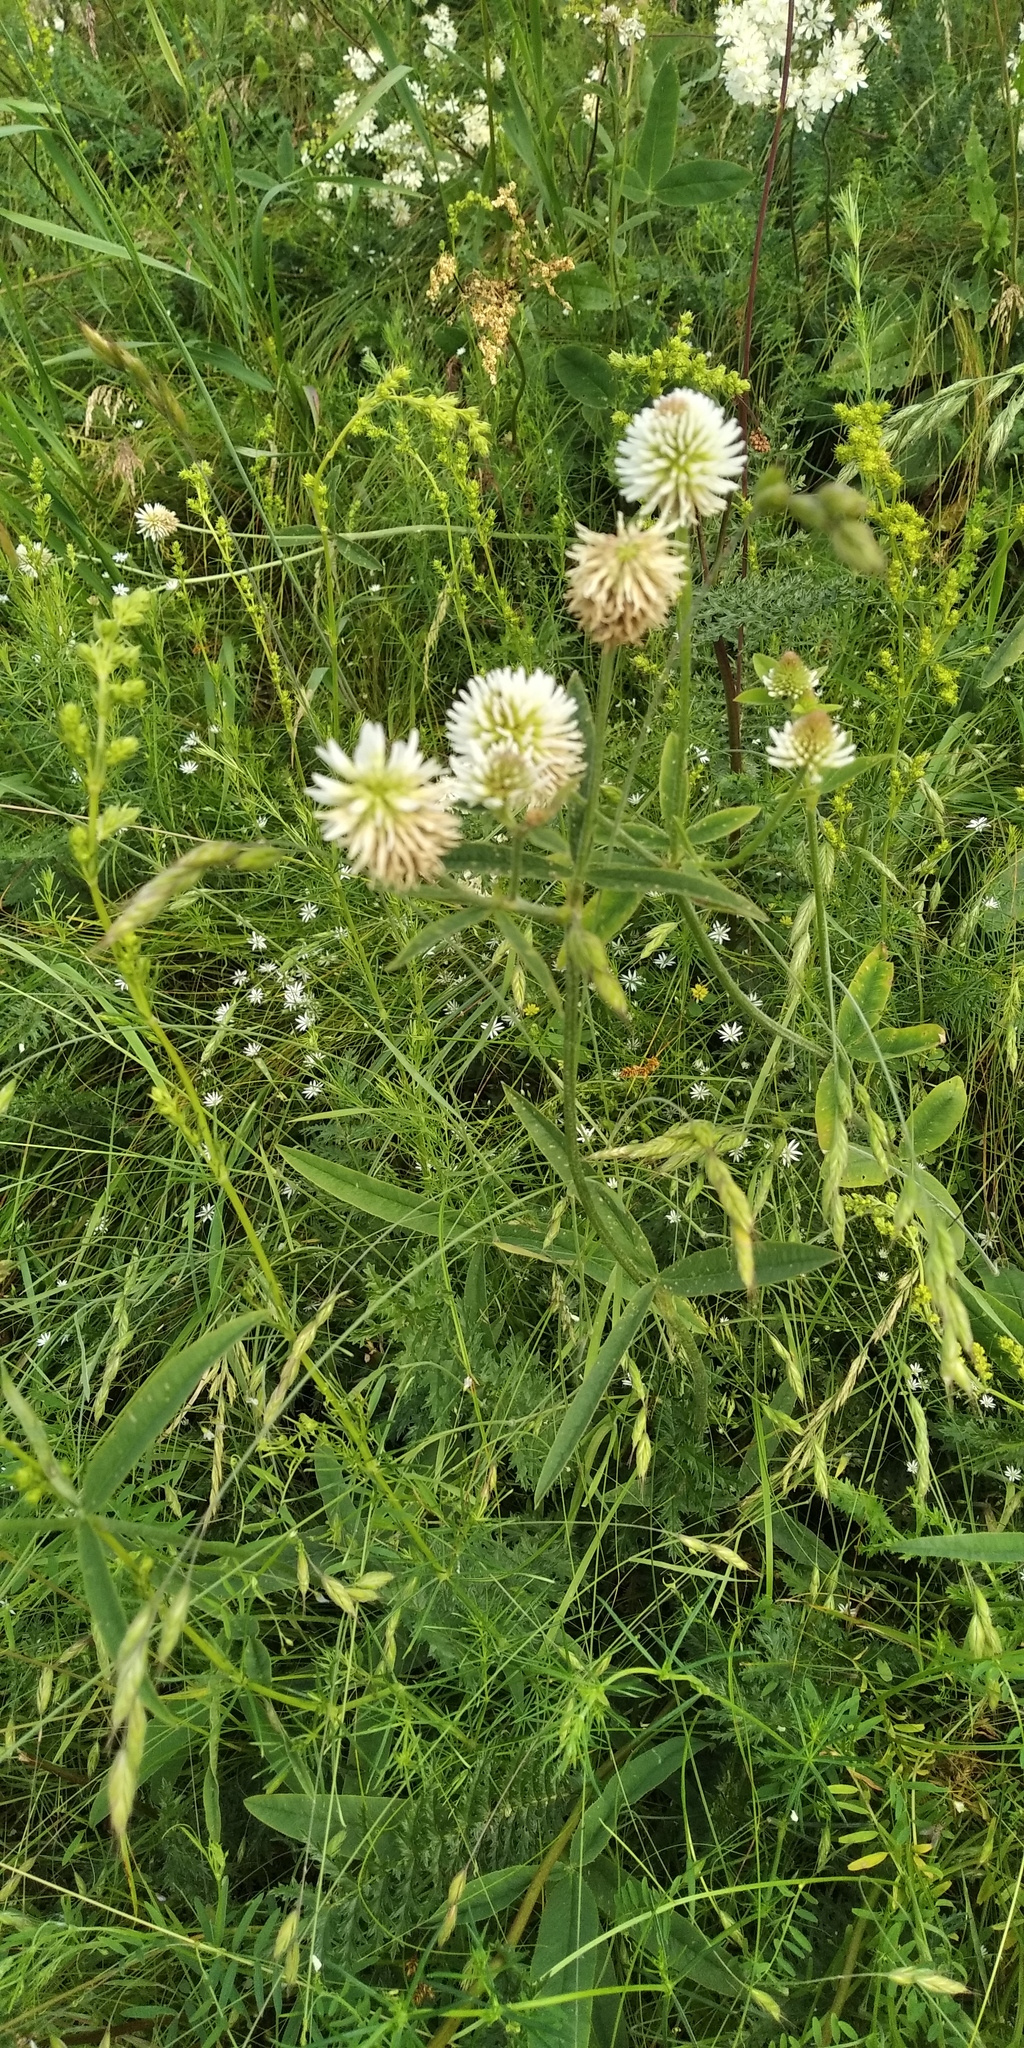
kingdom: Plantae
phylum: Tracheophyta
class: Magnoliopsida
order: Fabales
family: Fabaceae
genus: Trifolium
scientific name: Trifolium montanum
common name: Mountain clover
